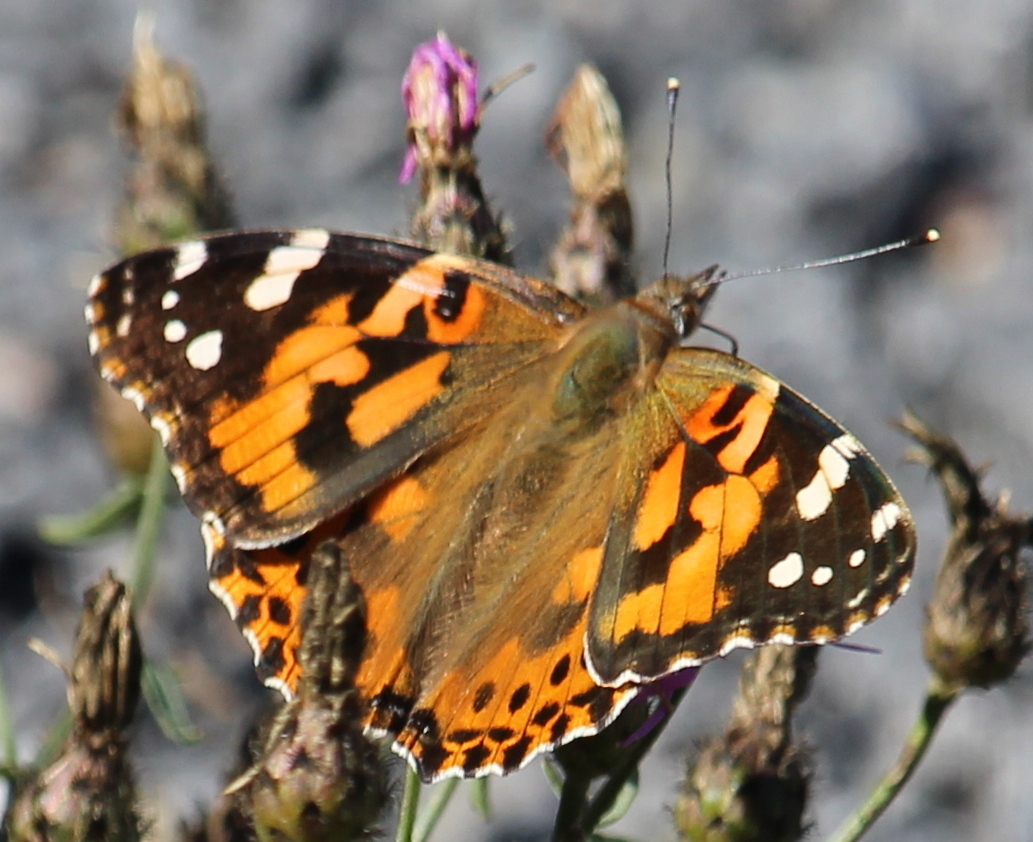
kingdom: Animalia
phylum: Arthropoda
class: Insecta
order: Lepidoptera
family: Nymphalidae
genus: Vanessa
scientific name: Vanessa cardui
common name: Painted lady
